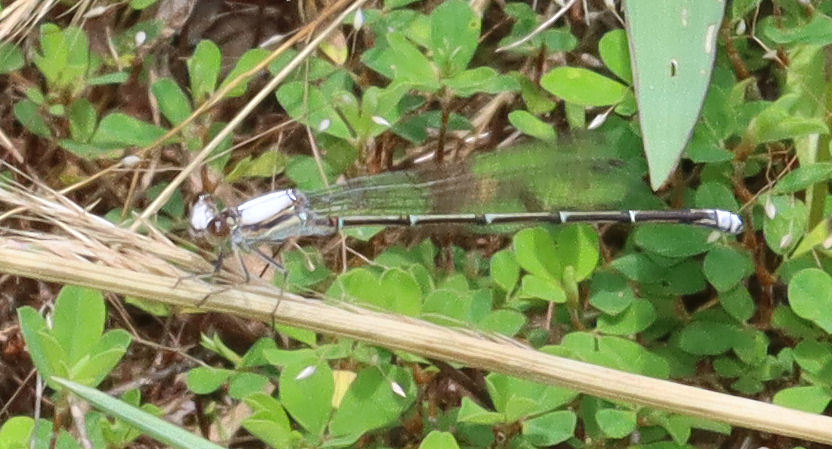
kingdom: Animalia
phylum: Arthropoda
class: Insecta
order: Odonata
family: Coenagrionidae
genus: Argia
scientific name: Argia moesta
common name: Powdered dancer
